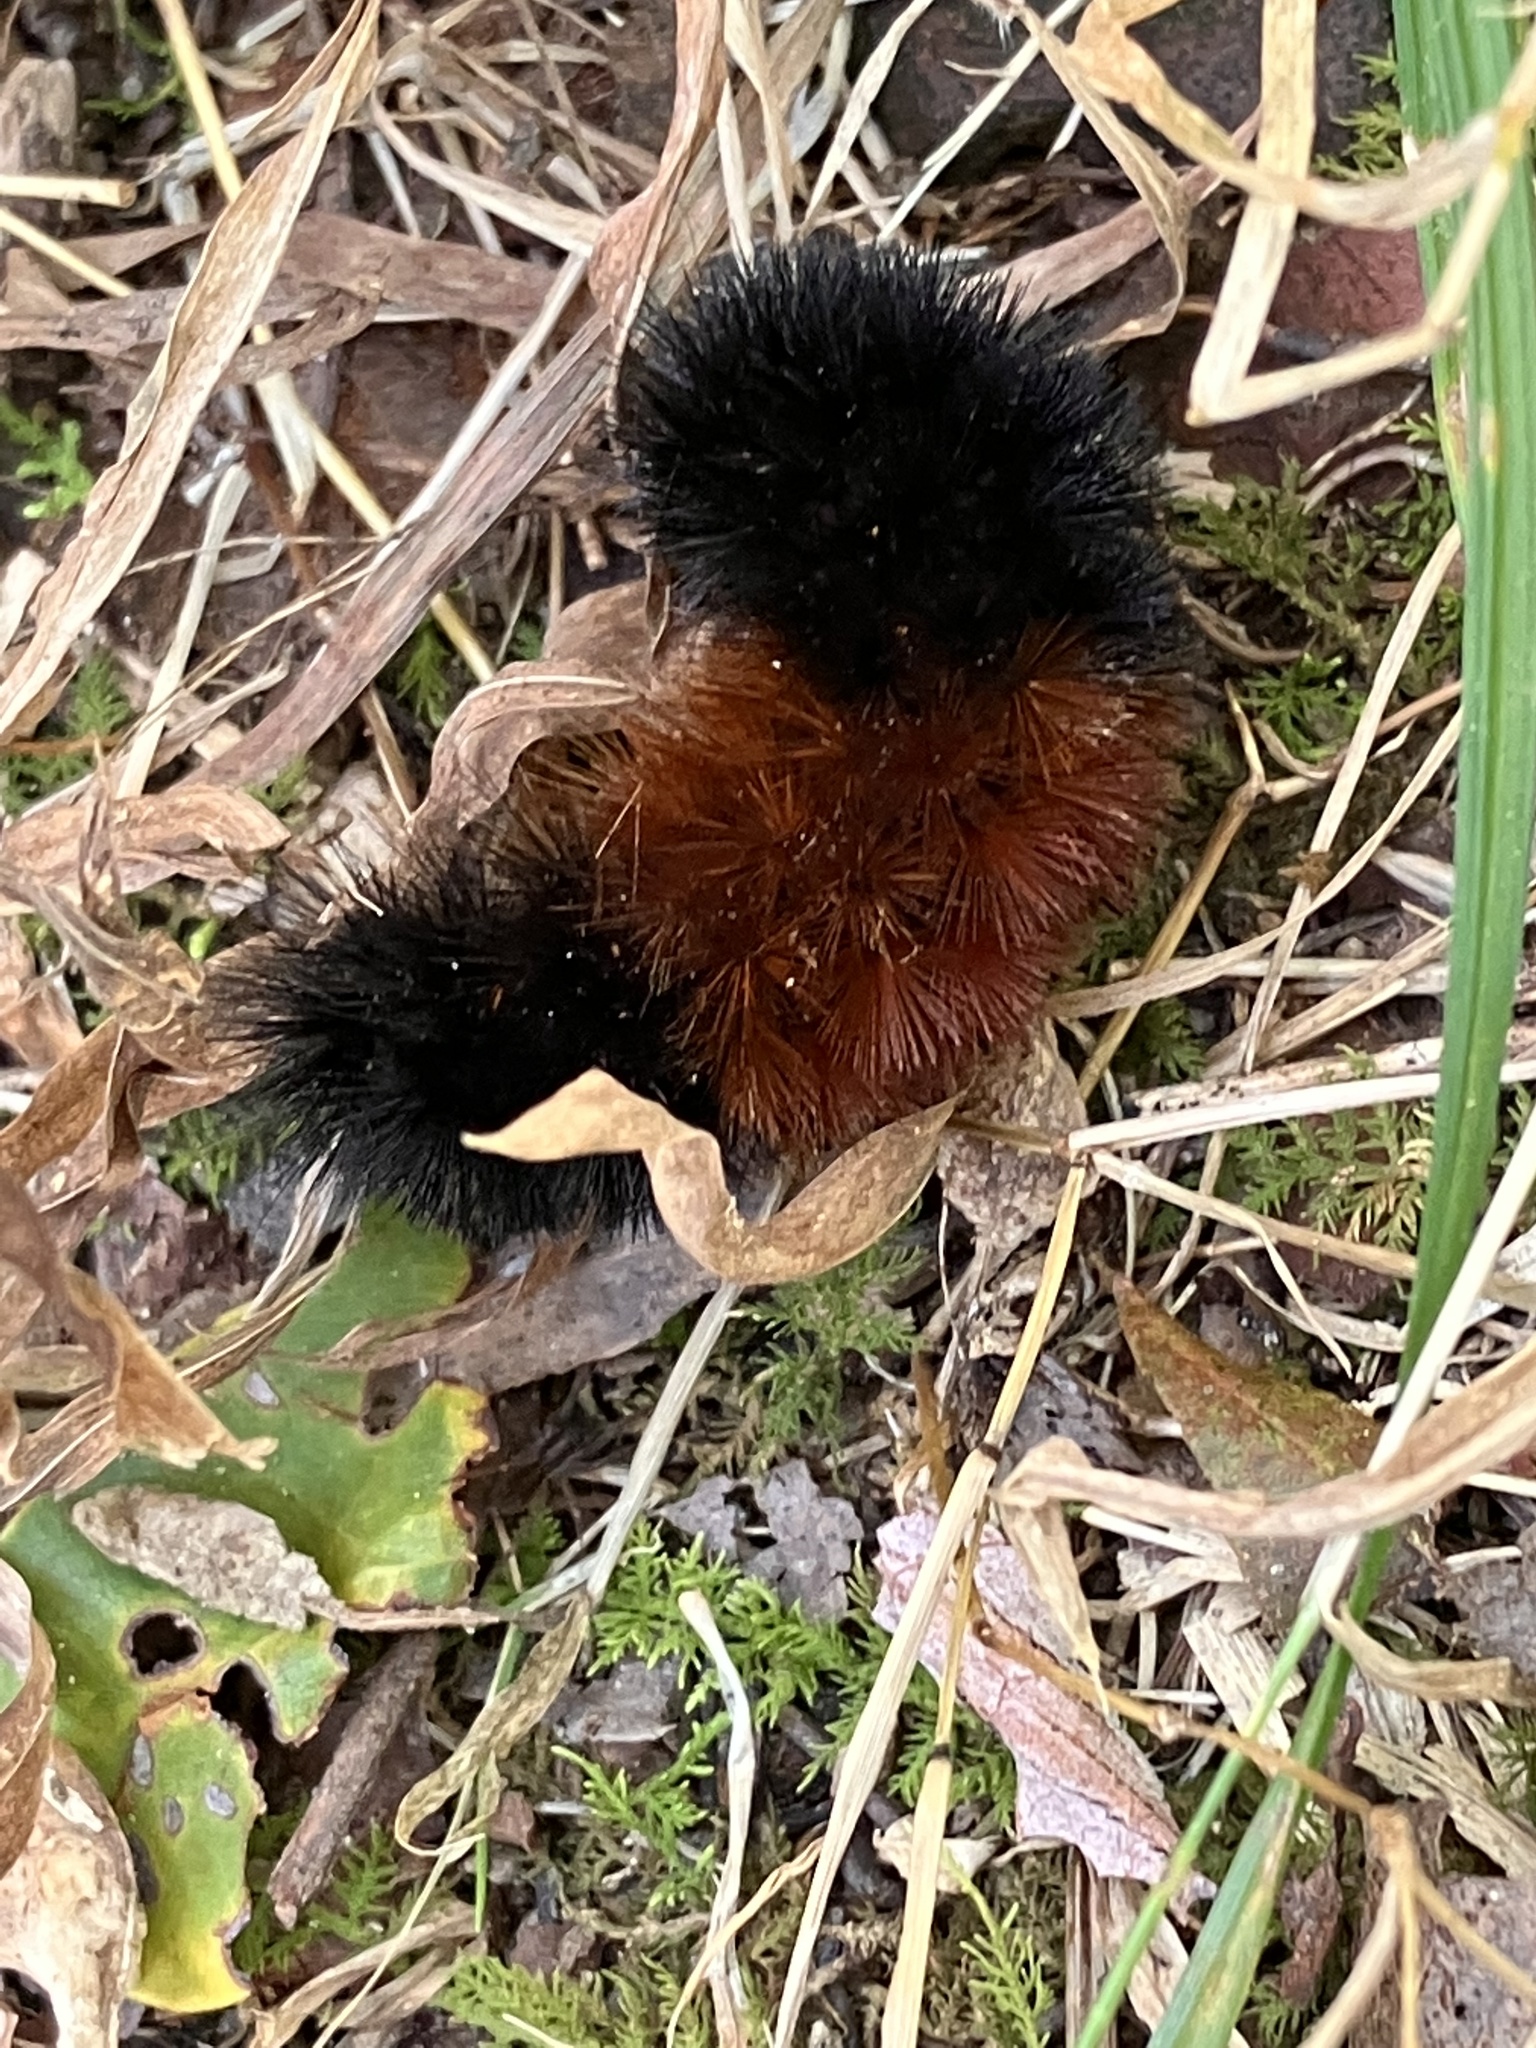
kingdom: Animalia
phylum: Arthropoda
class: Insecta
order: Lepidoptera
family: Erebidae
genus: Pyrrharctia
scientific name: Pyrrharctia isabella
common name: Isabella tiger moth
